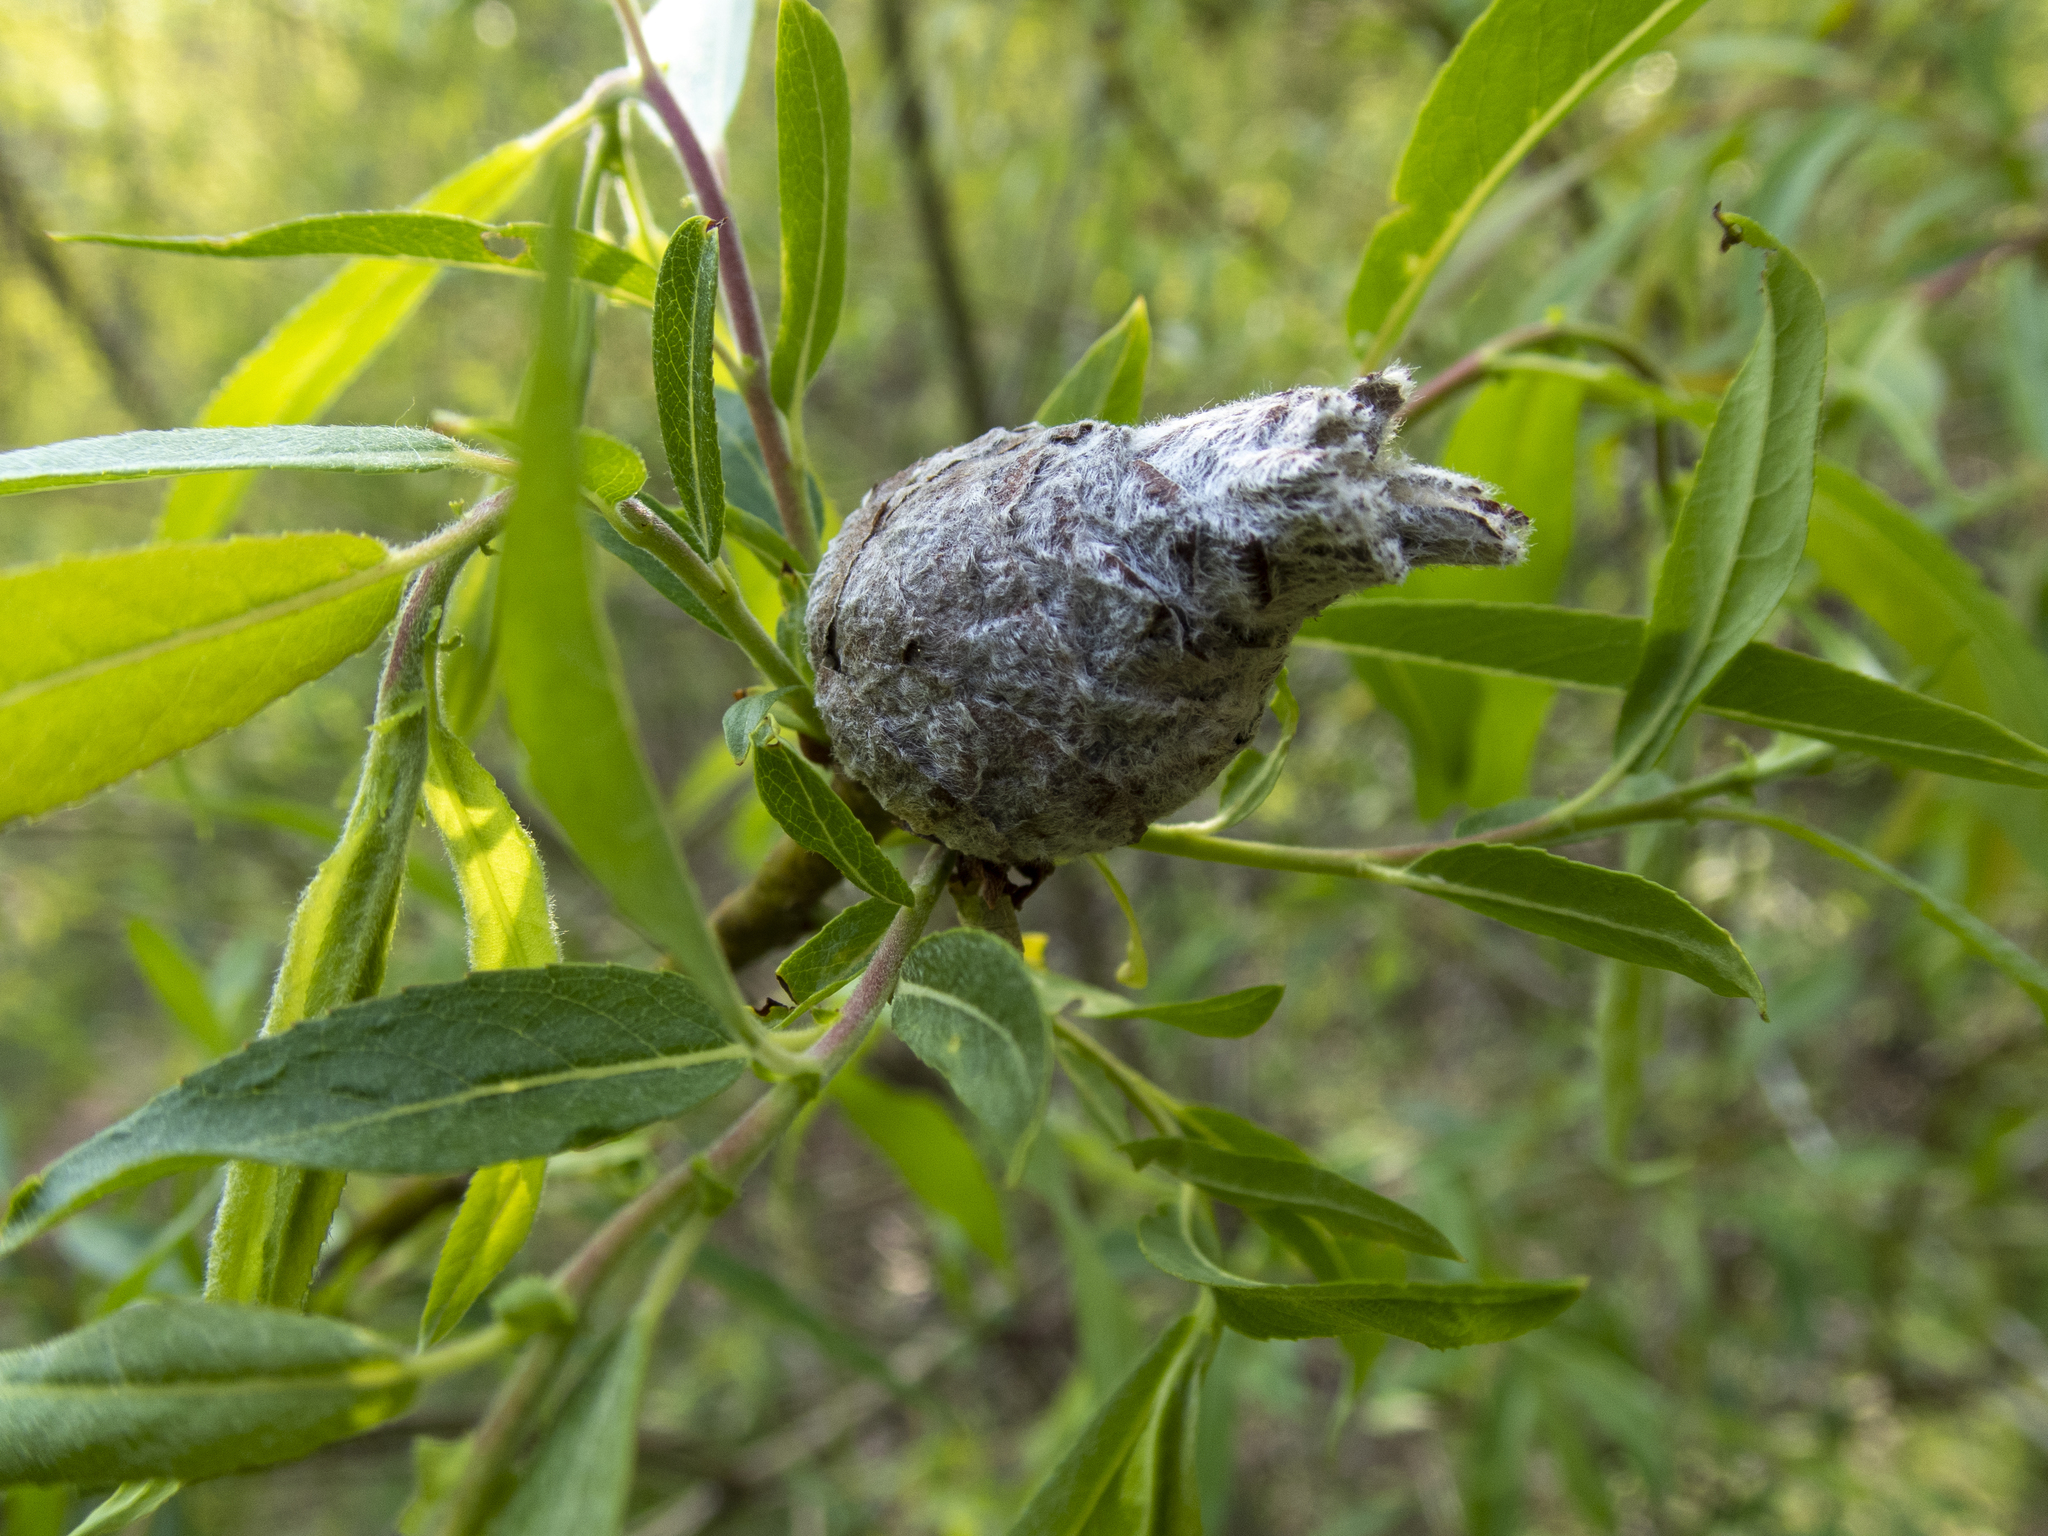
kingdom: Animalia
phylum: Arthropoda
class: Insecta
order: Diptera
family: Cecidomyiidae
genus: Rabdophaga
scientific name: Rabdophaga strobiloides
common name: Willow pinecone gall midge
